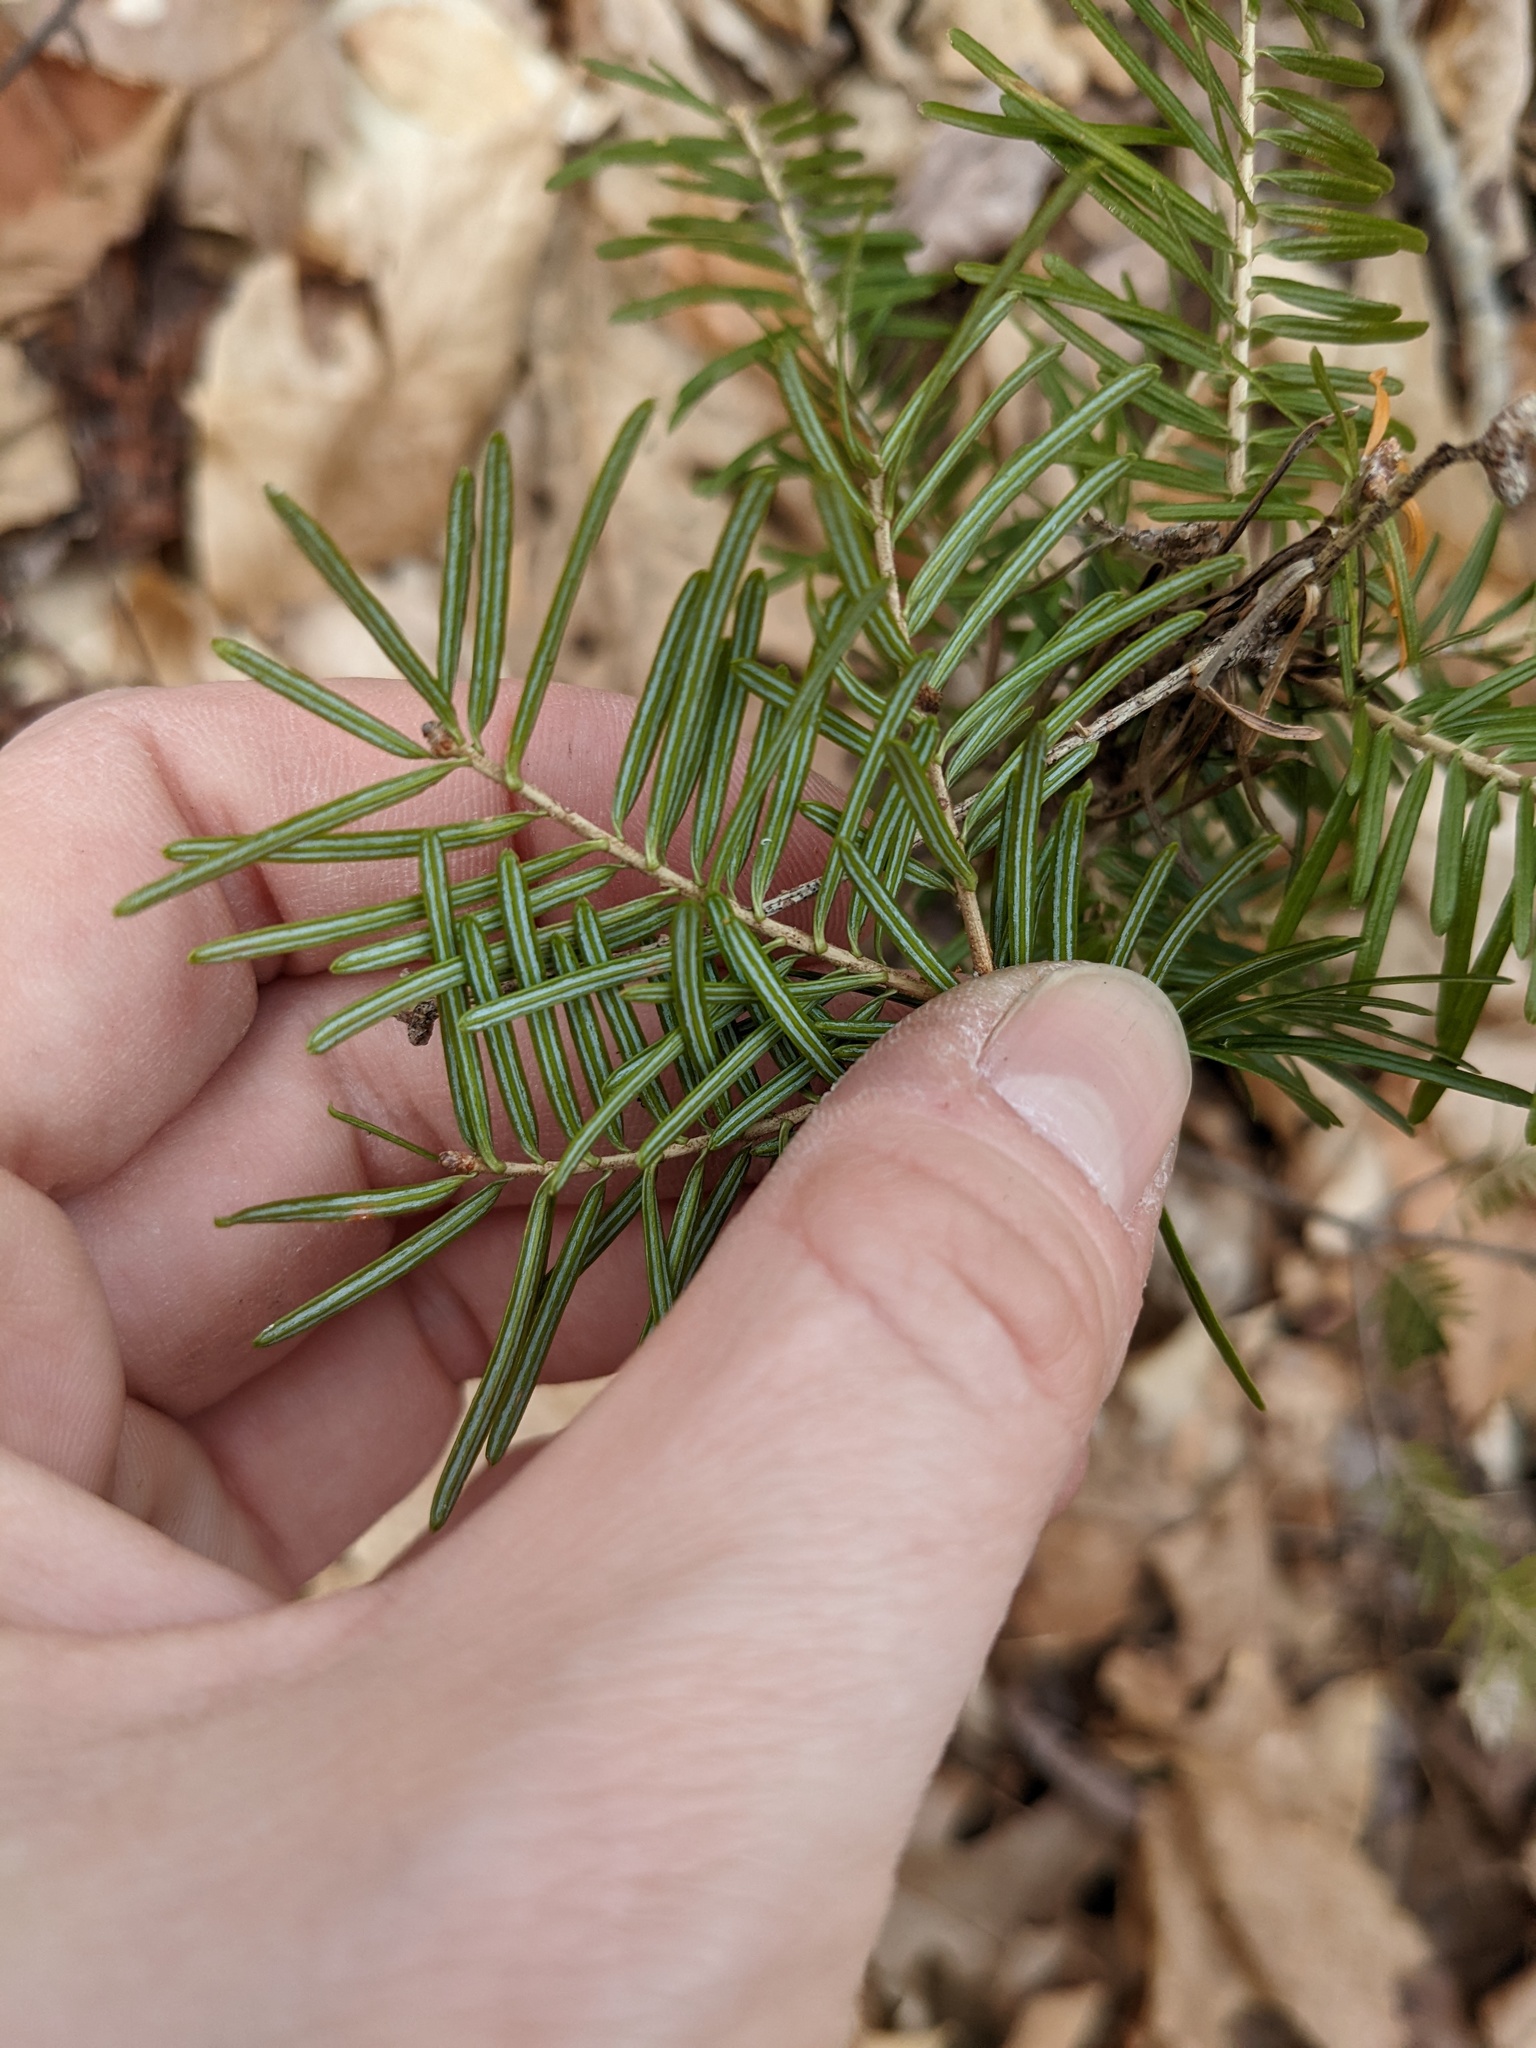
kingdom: Plantae
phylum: Tracheophyta
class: Pinopsida
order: Pinales
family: Pinaceae
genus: Abies
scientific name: Abies balsamea
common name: Balsam fir
